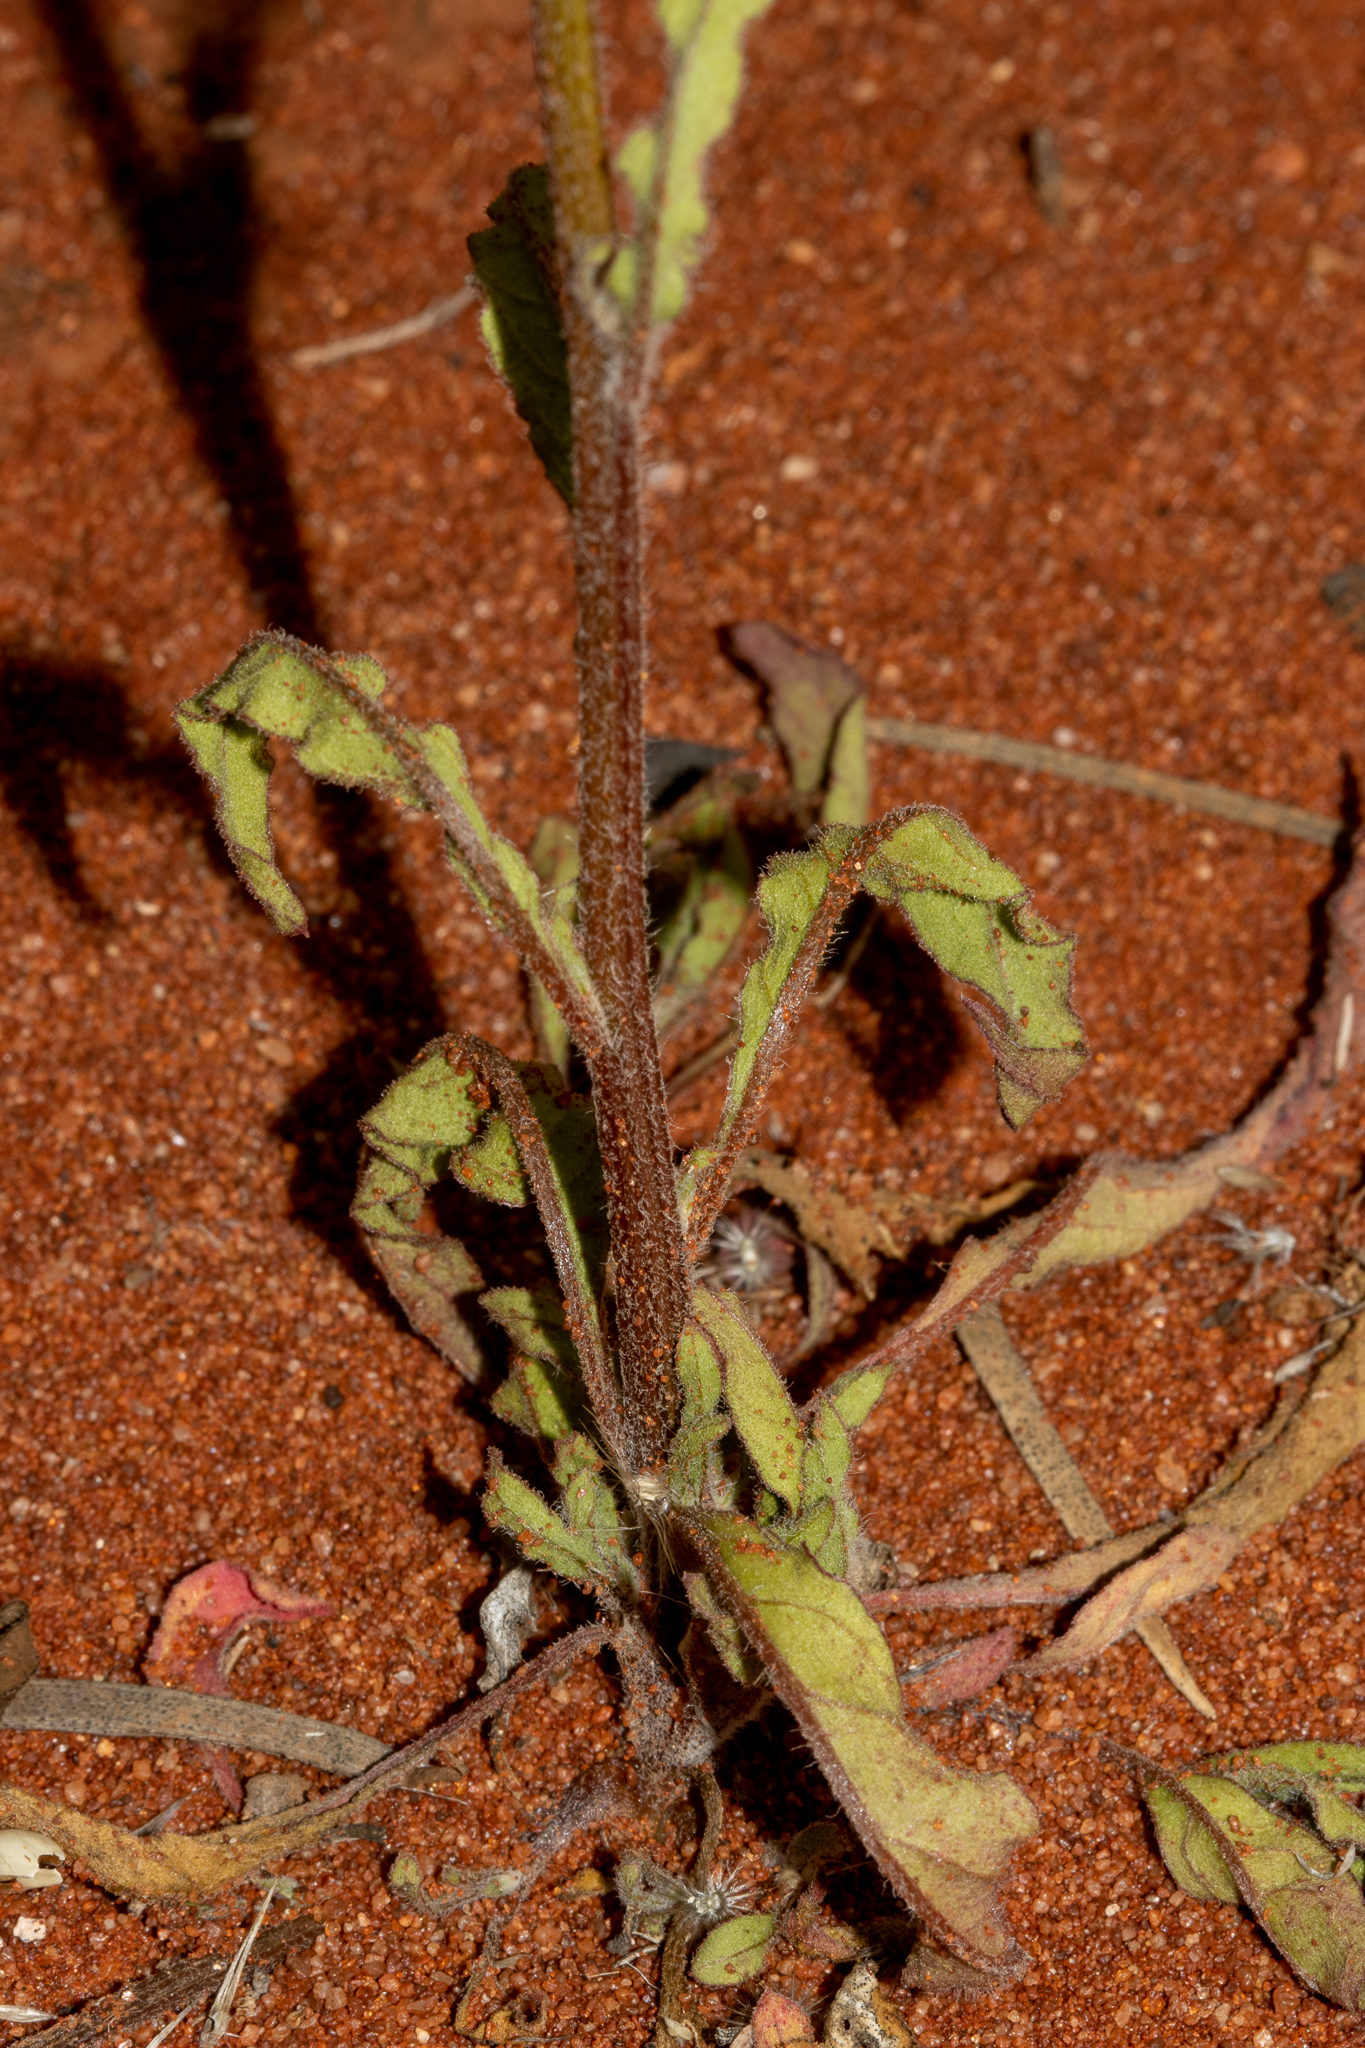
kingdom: Plantae
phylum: Tracheophyta
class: Magnoliopsida
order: Caryophyllales
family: Amaranthaceae
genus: Ptilotus
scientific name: Ptilotus polystachyus
